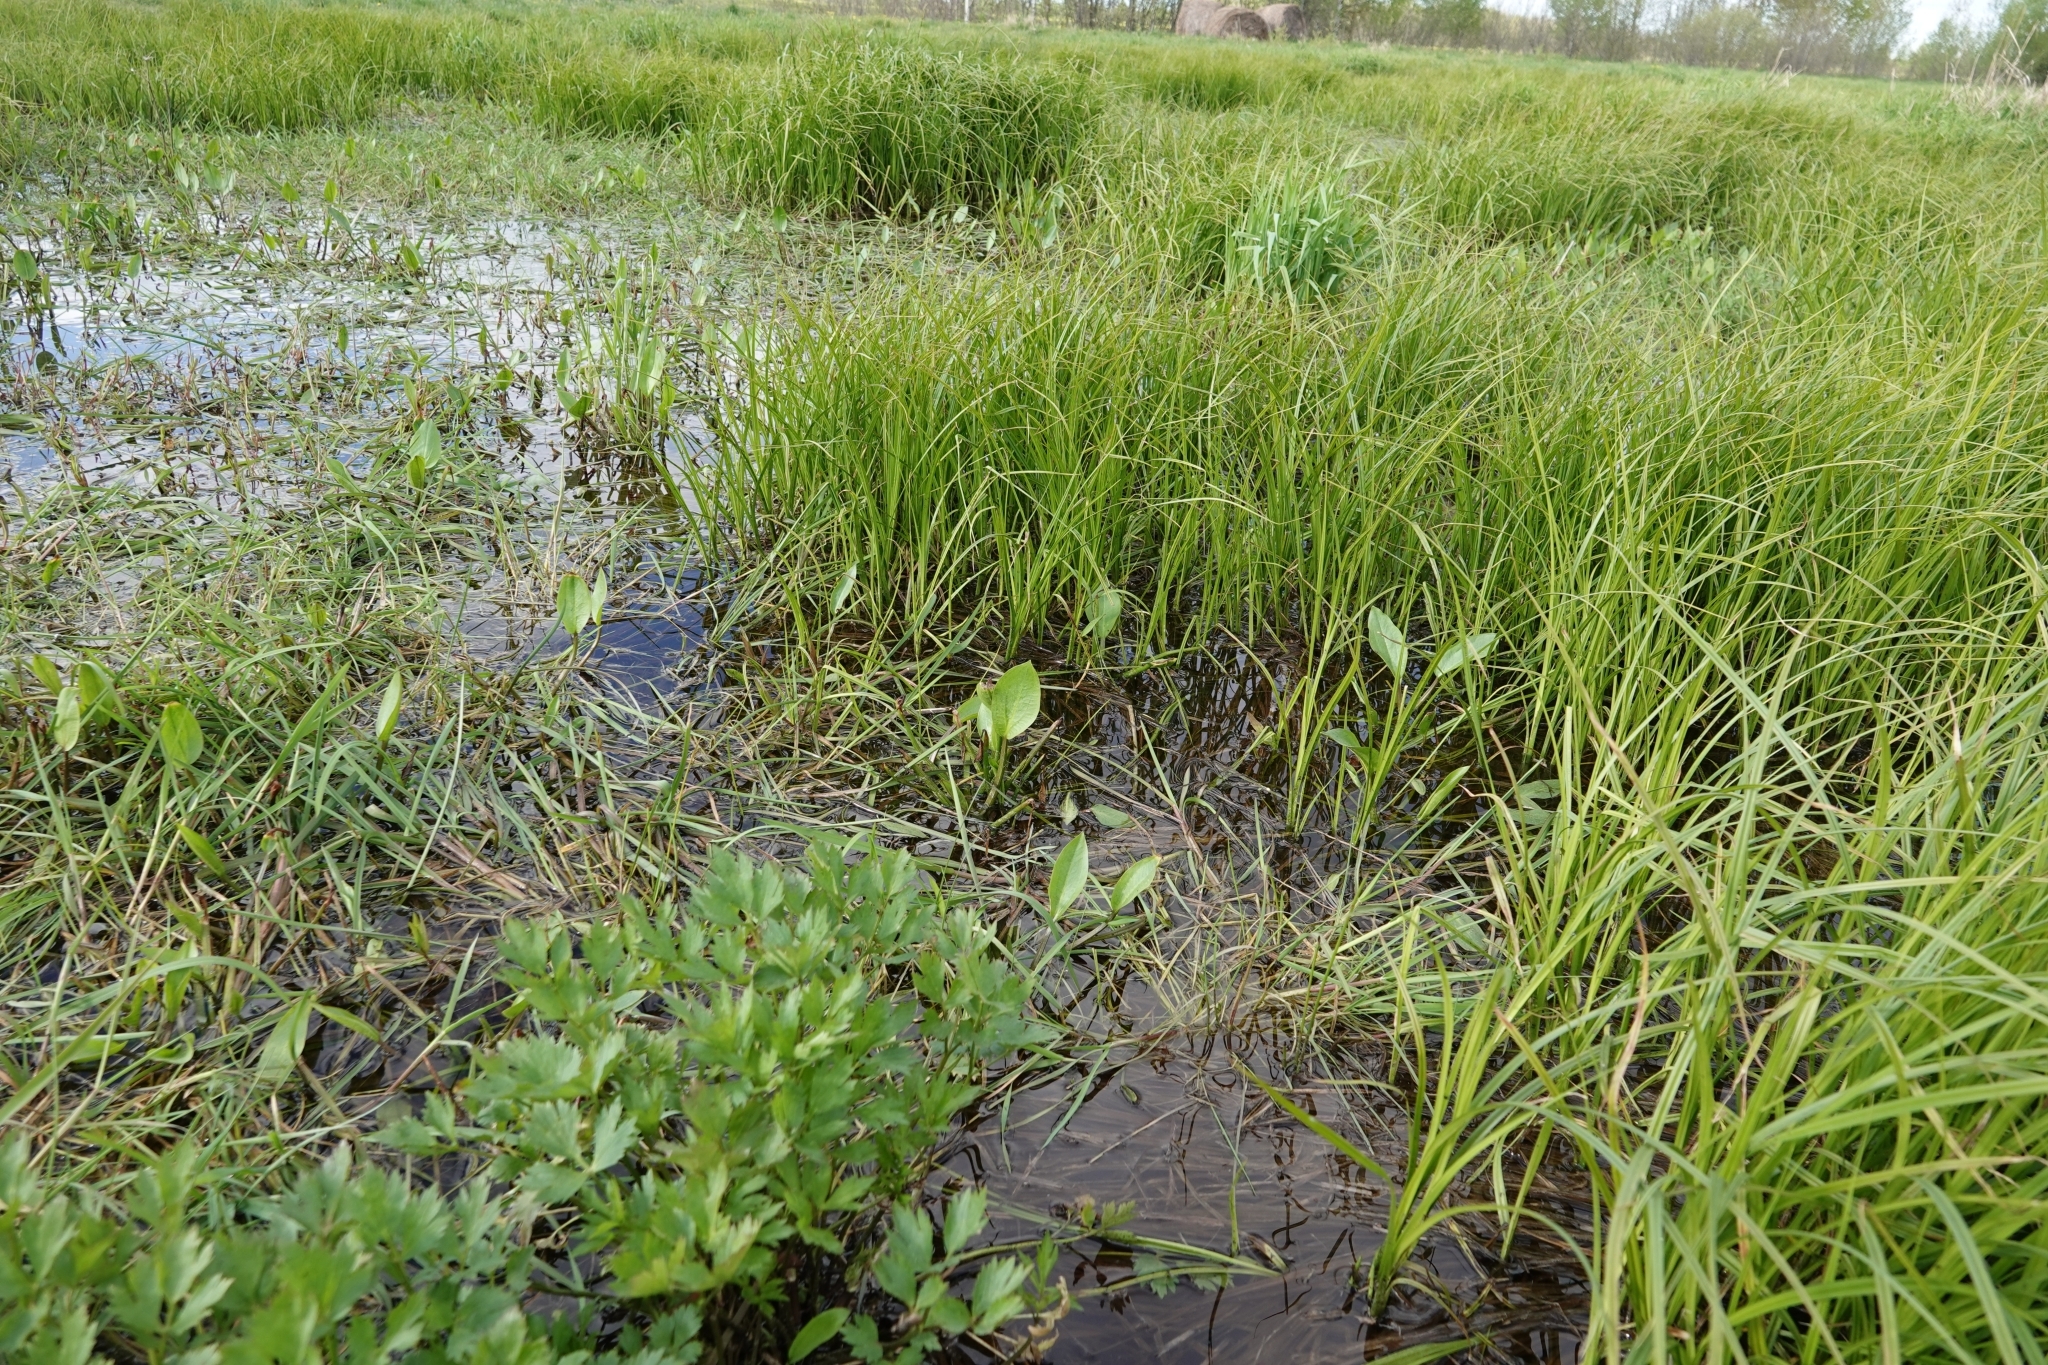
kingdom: Plantae
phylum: Tracheophyta
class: Liliopsida
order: Alismatales
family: Alismataceae
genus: Alisma
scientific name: Alisma plantago-aquatica
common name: Water-plantain
